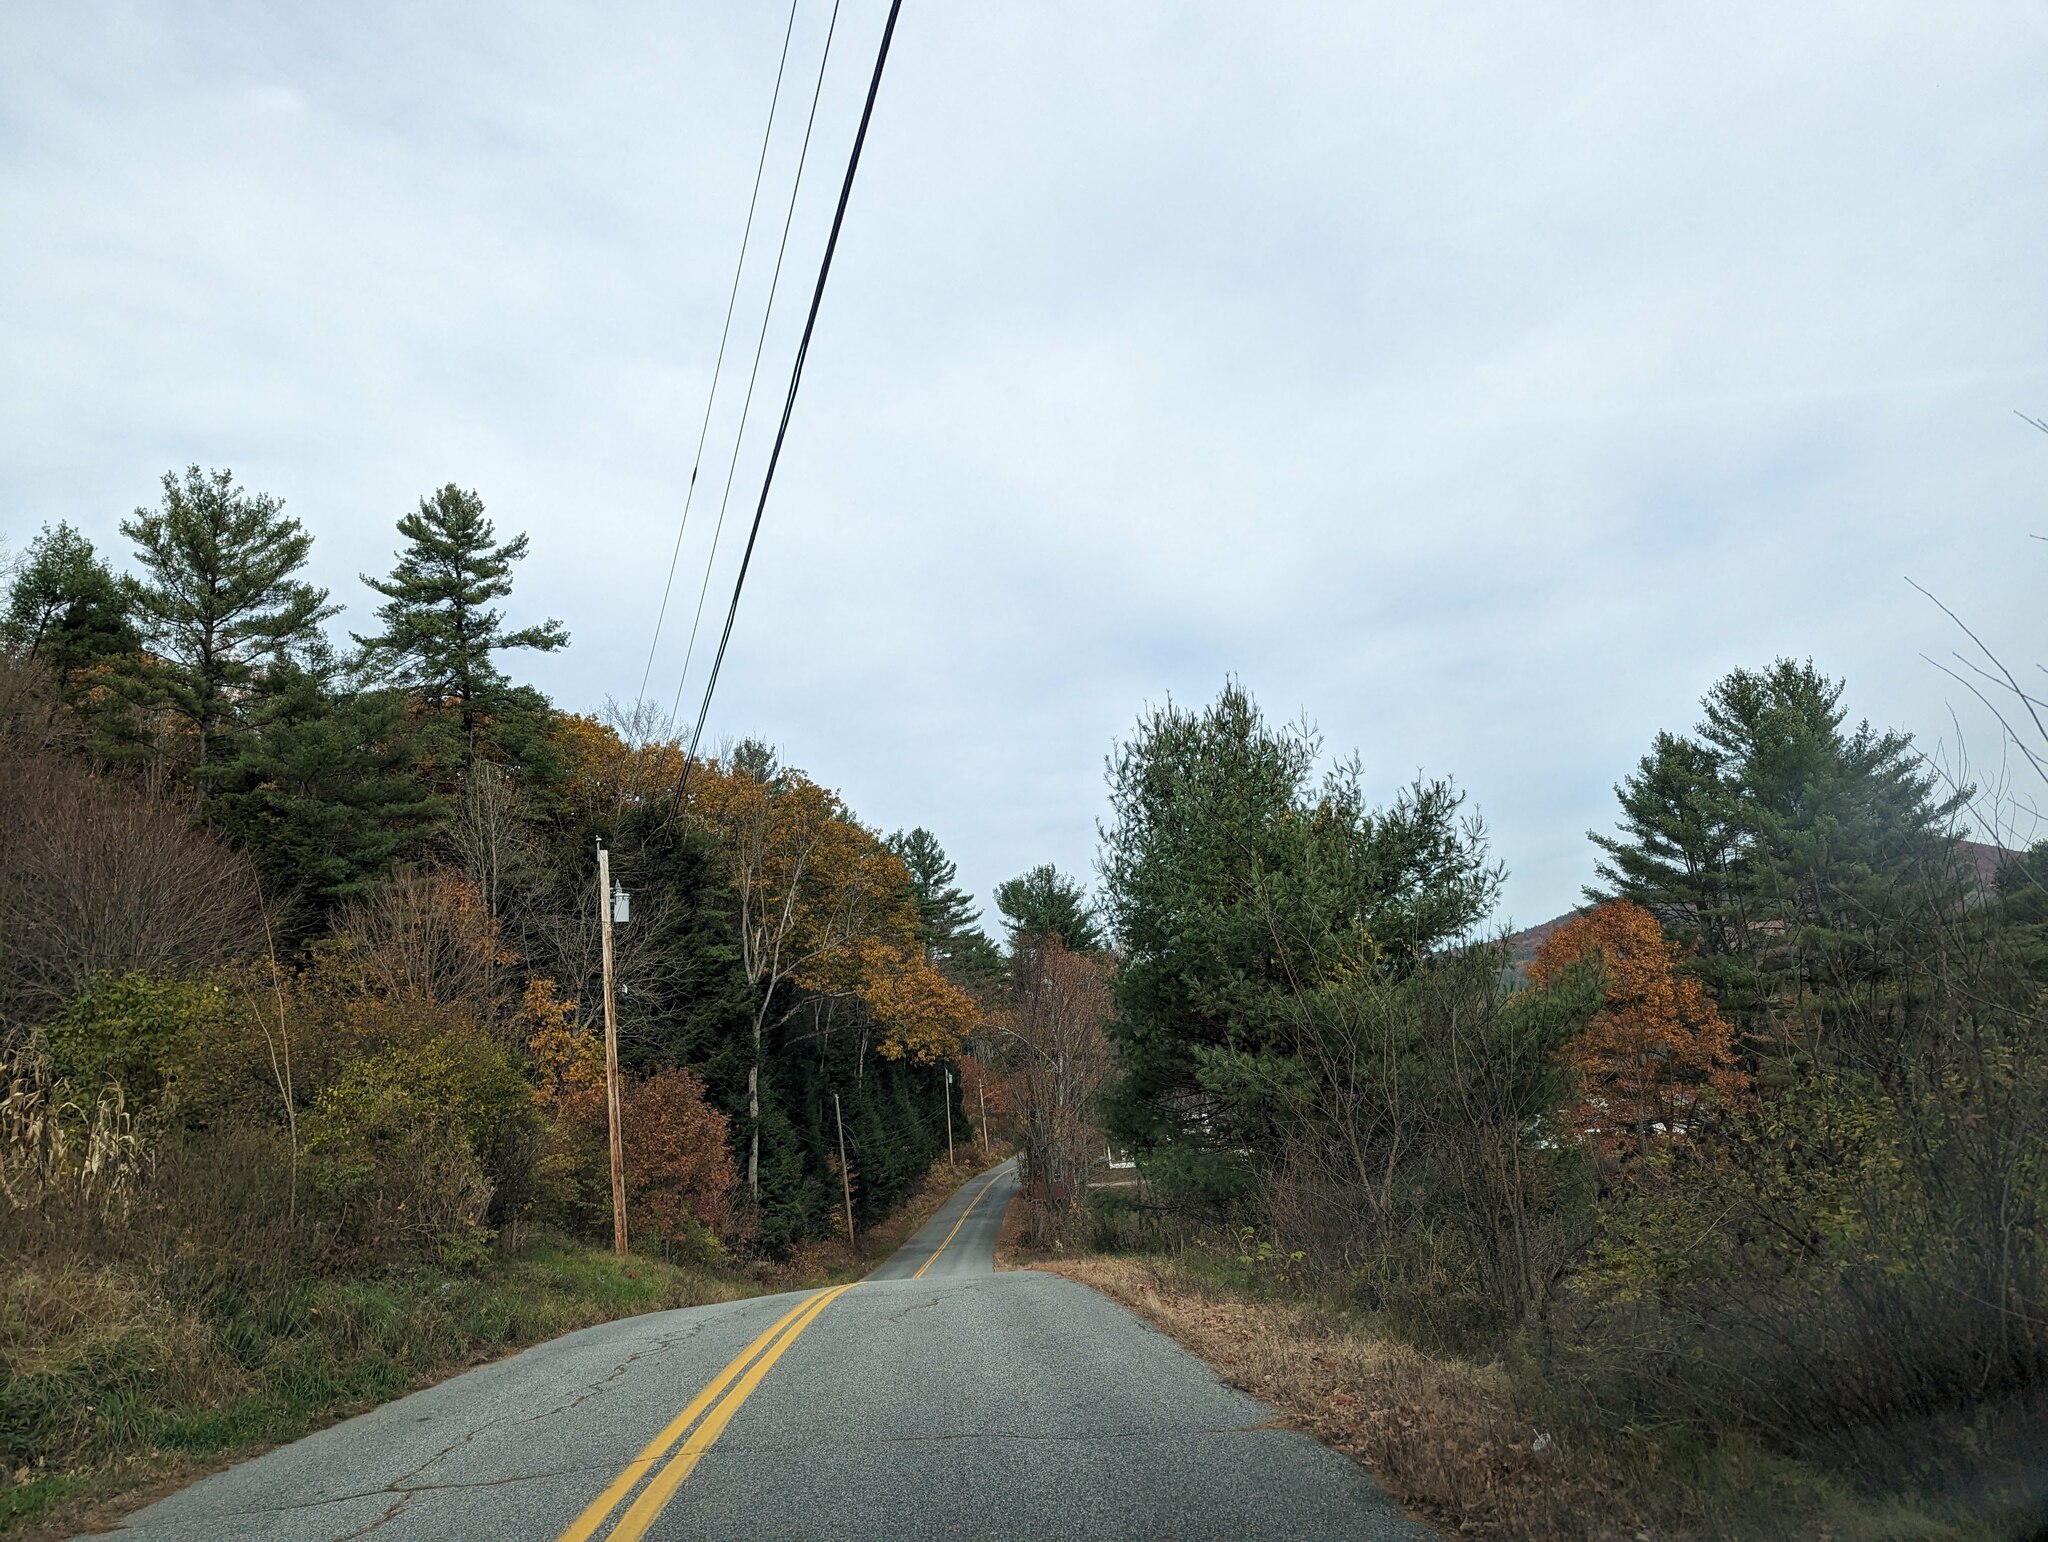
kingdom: Plantae
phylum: Tracheophyta
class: Pinopsida
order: Pinales
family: Pinaceae
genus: Pinus
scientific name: Pinus strobus
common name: Weymouth pine
